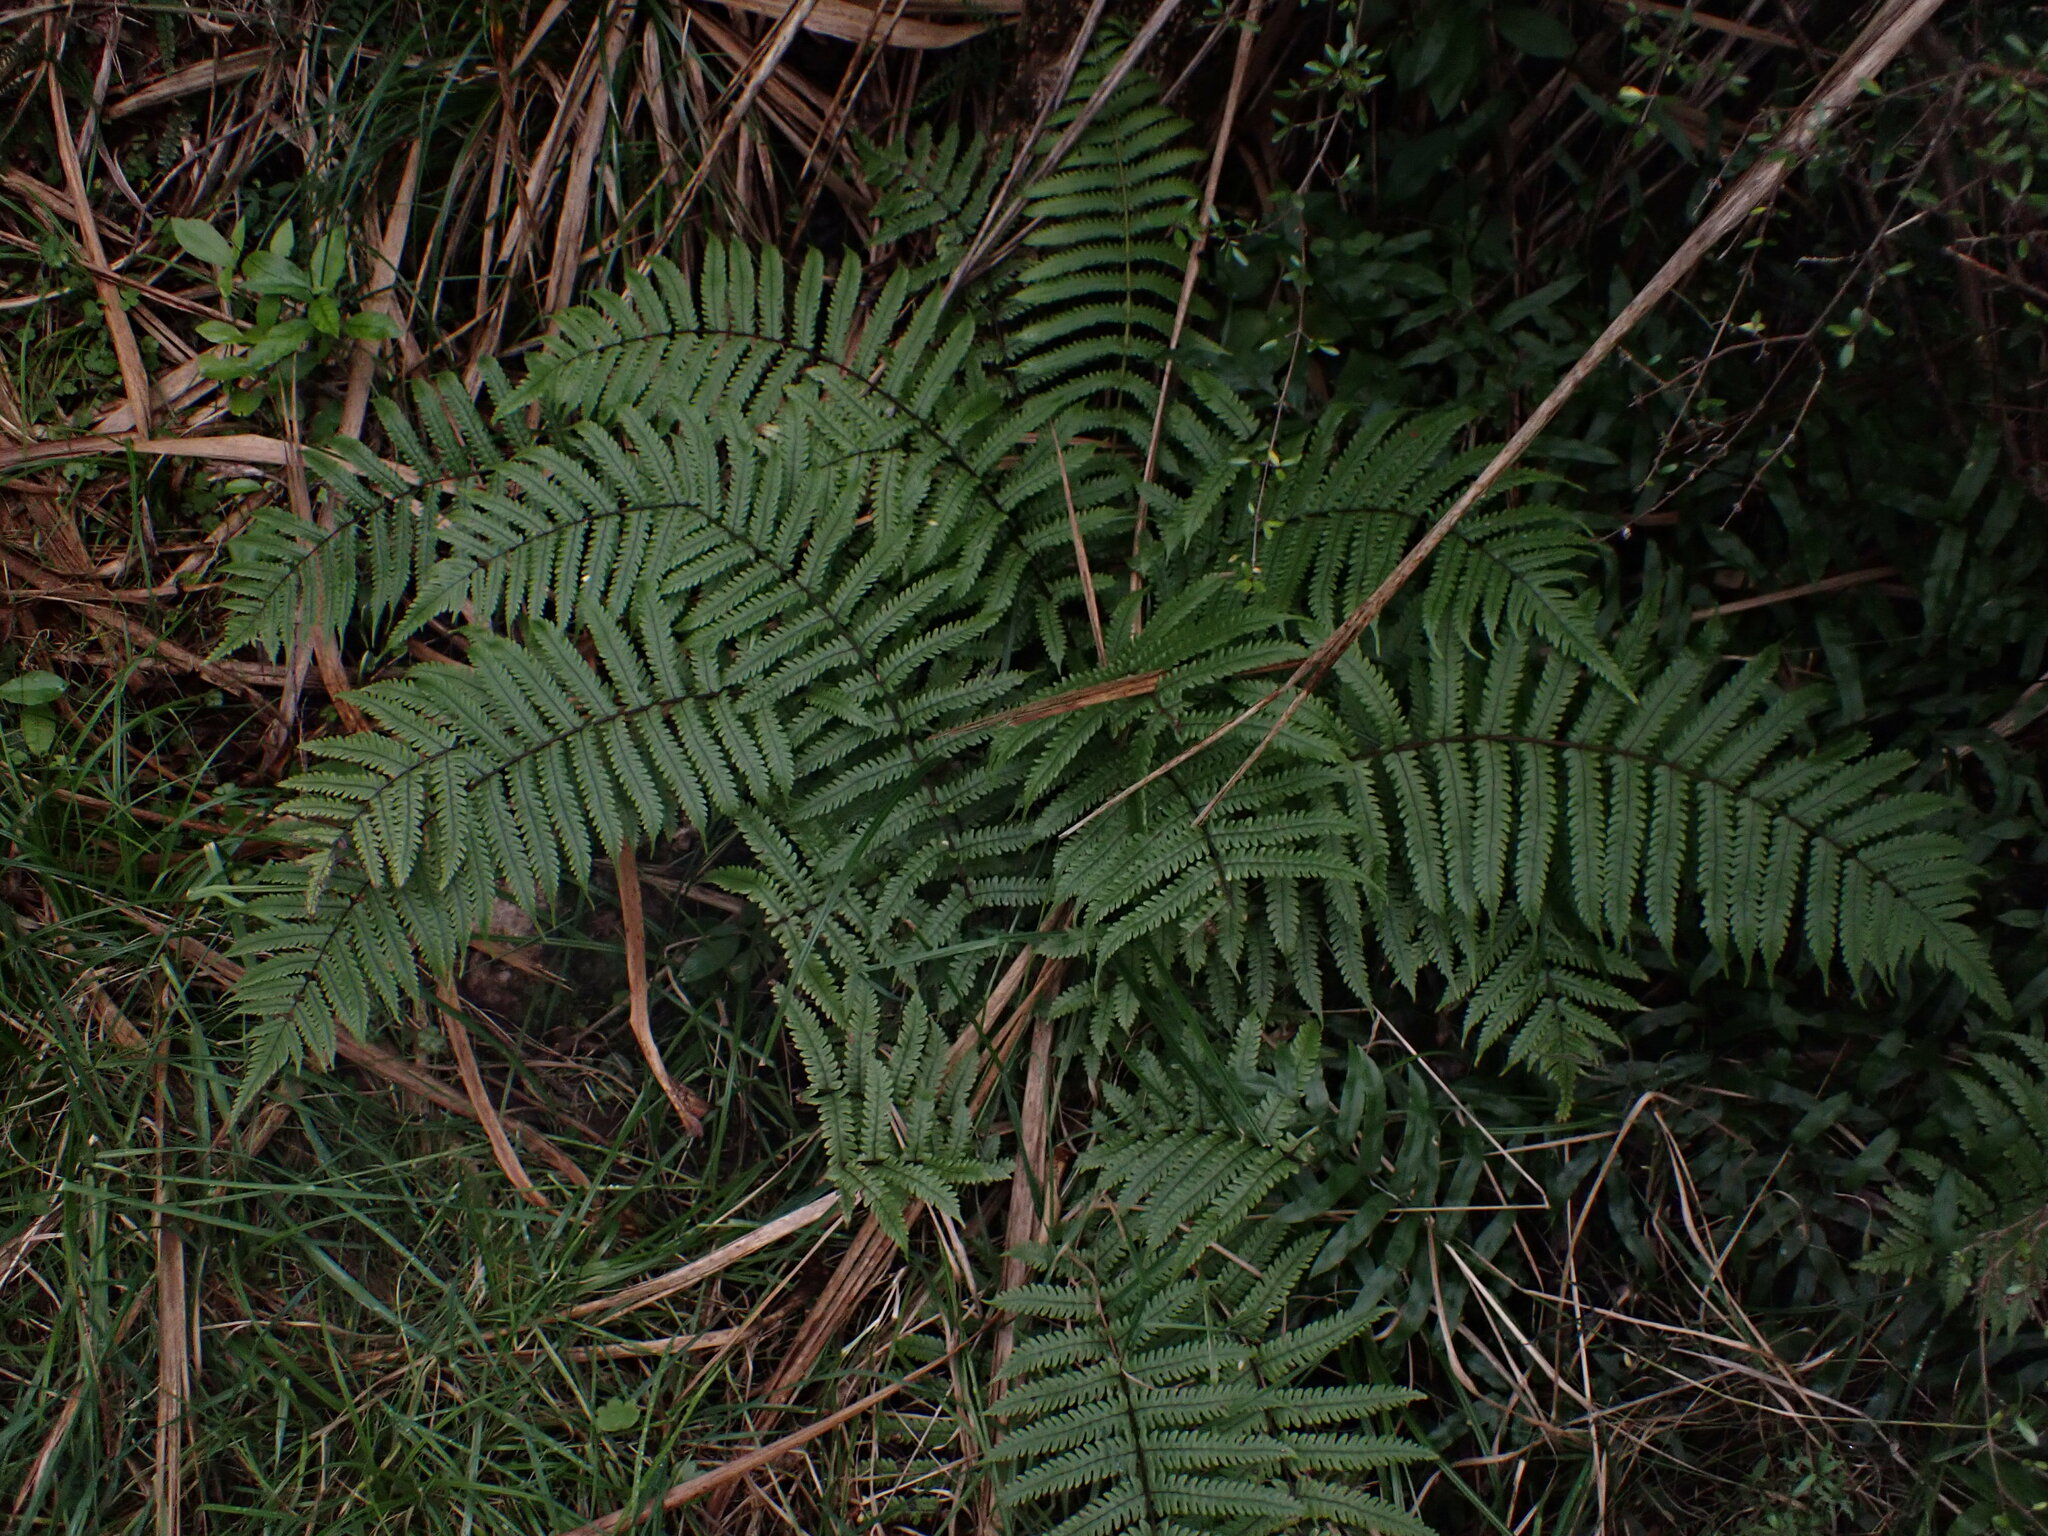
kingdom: Plantae
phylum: Tracheophyta
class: Polypodiopsida
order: Polypodiales
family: Thelypteridaceae
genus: Pakau
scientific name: Pakau pennigera
